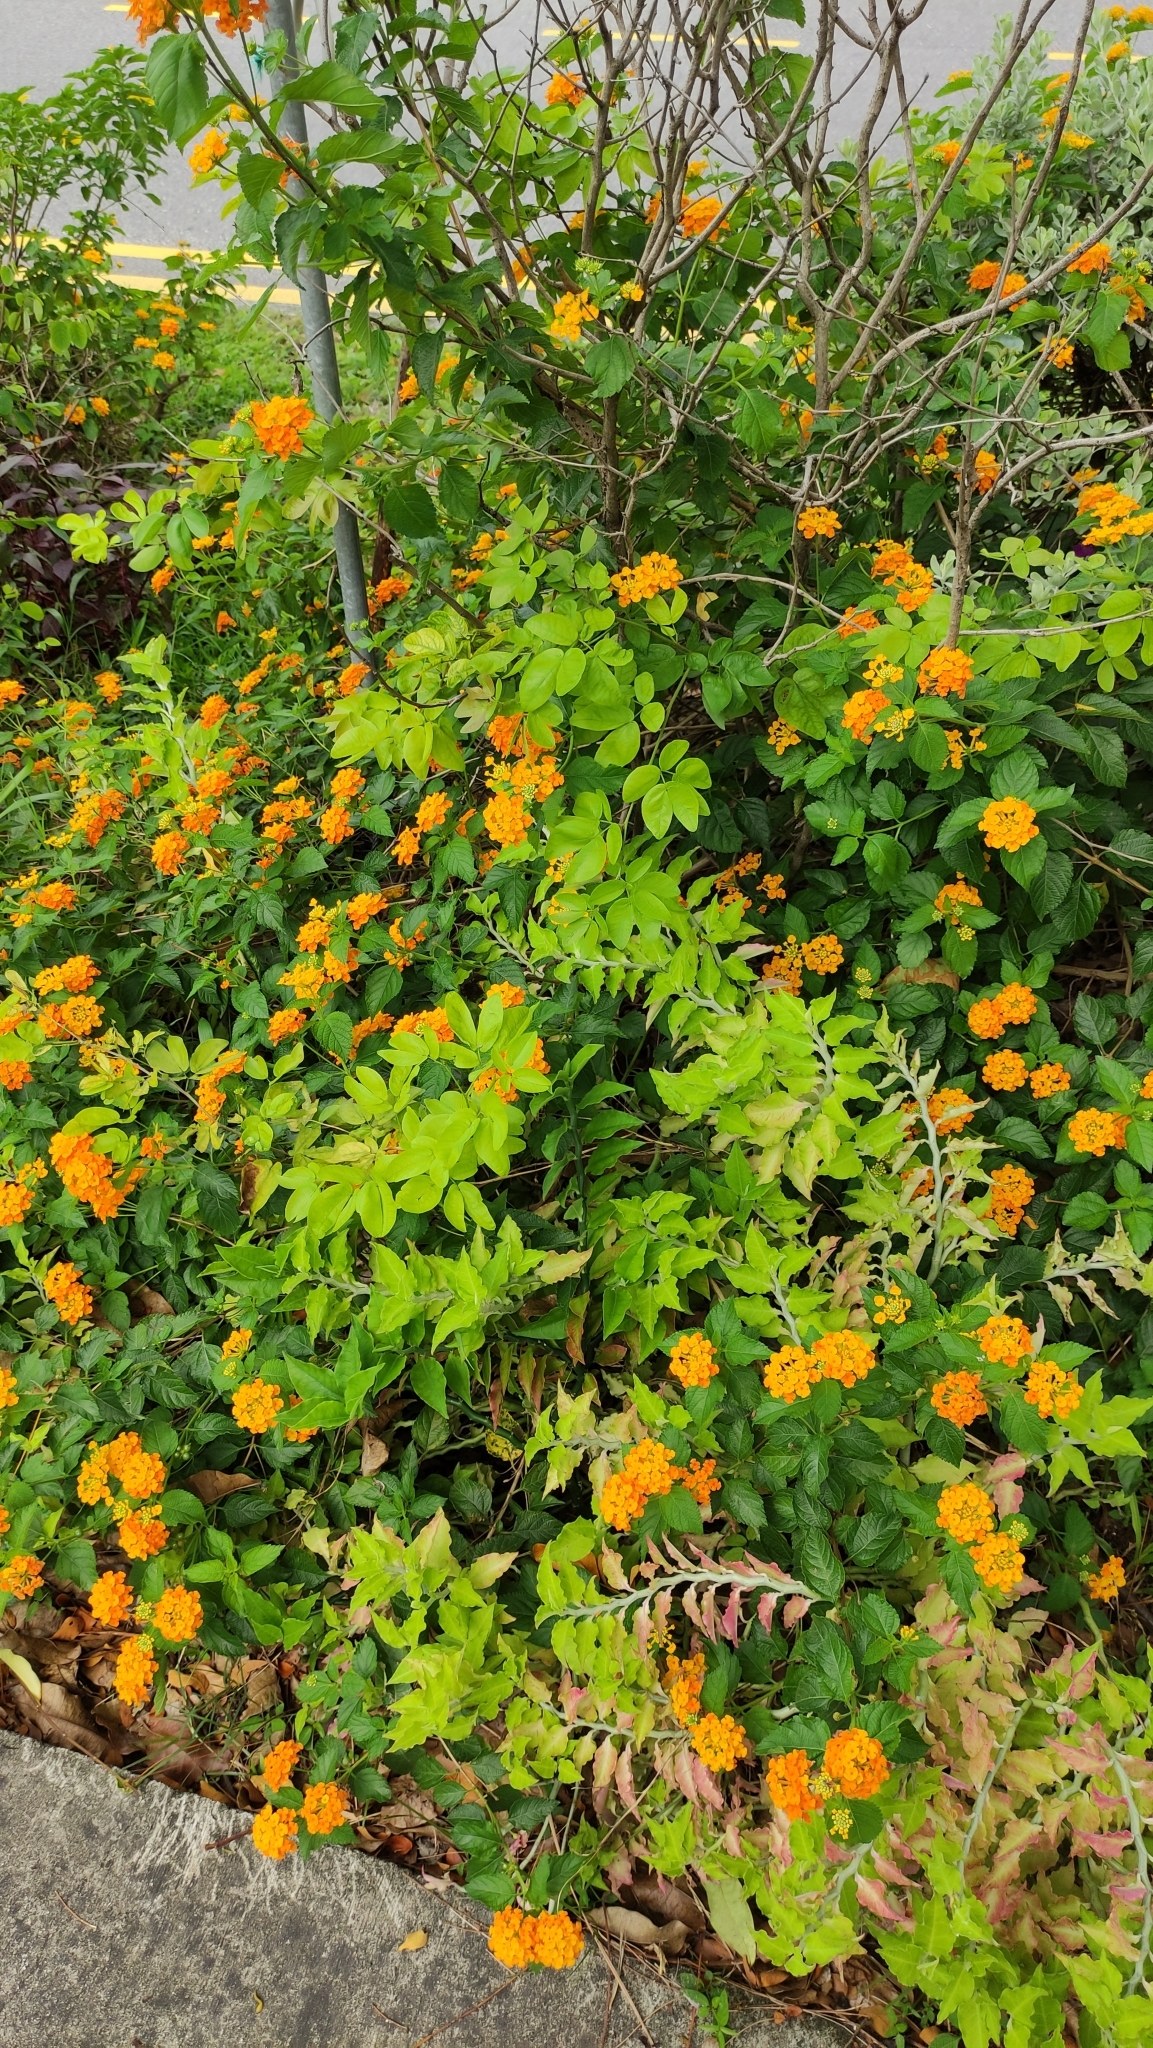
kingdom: Plantae
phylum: Tracheophyta
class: Magnoliopsida
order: Lamiales
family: Verbenaceae
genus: Lantana
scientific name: Lantana camara
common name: Lantana
